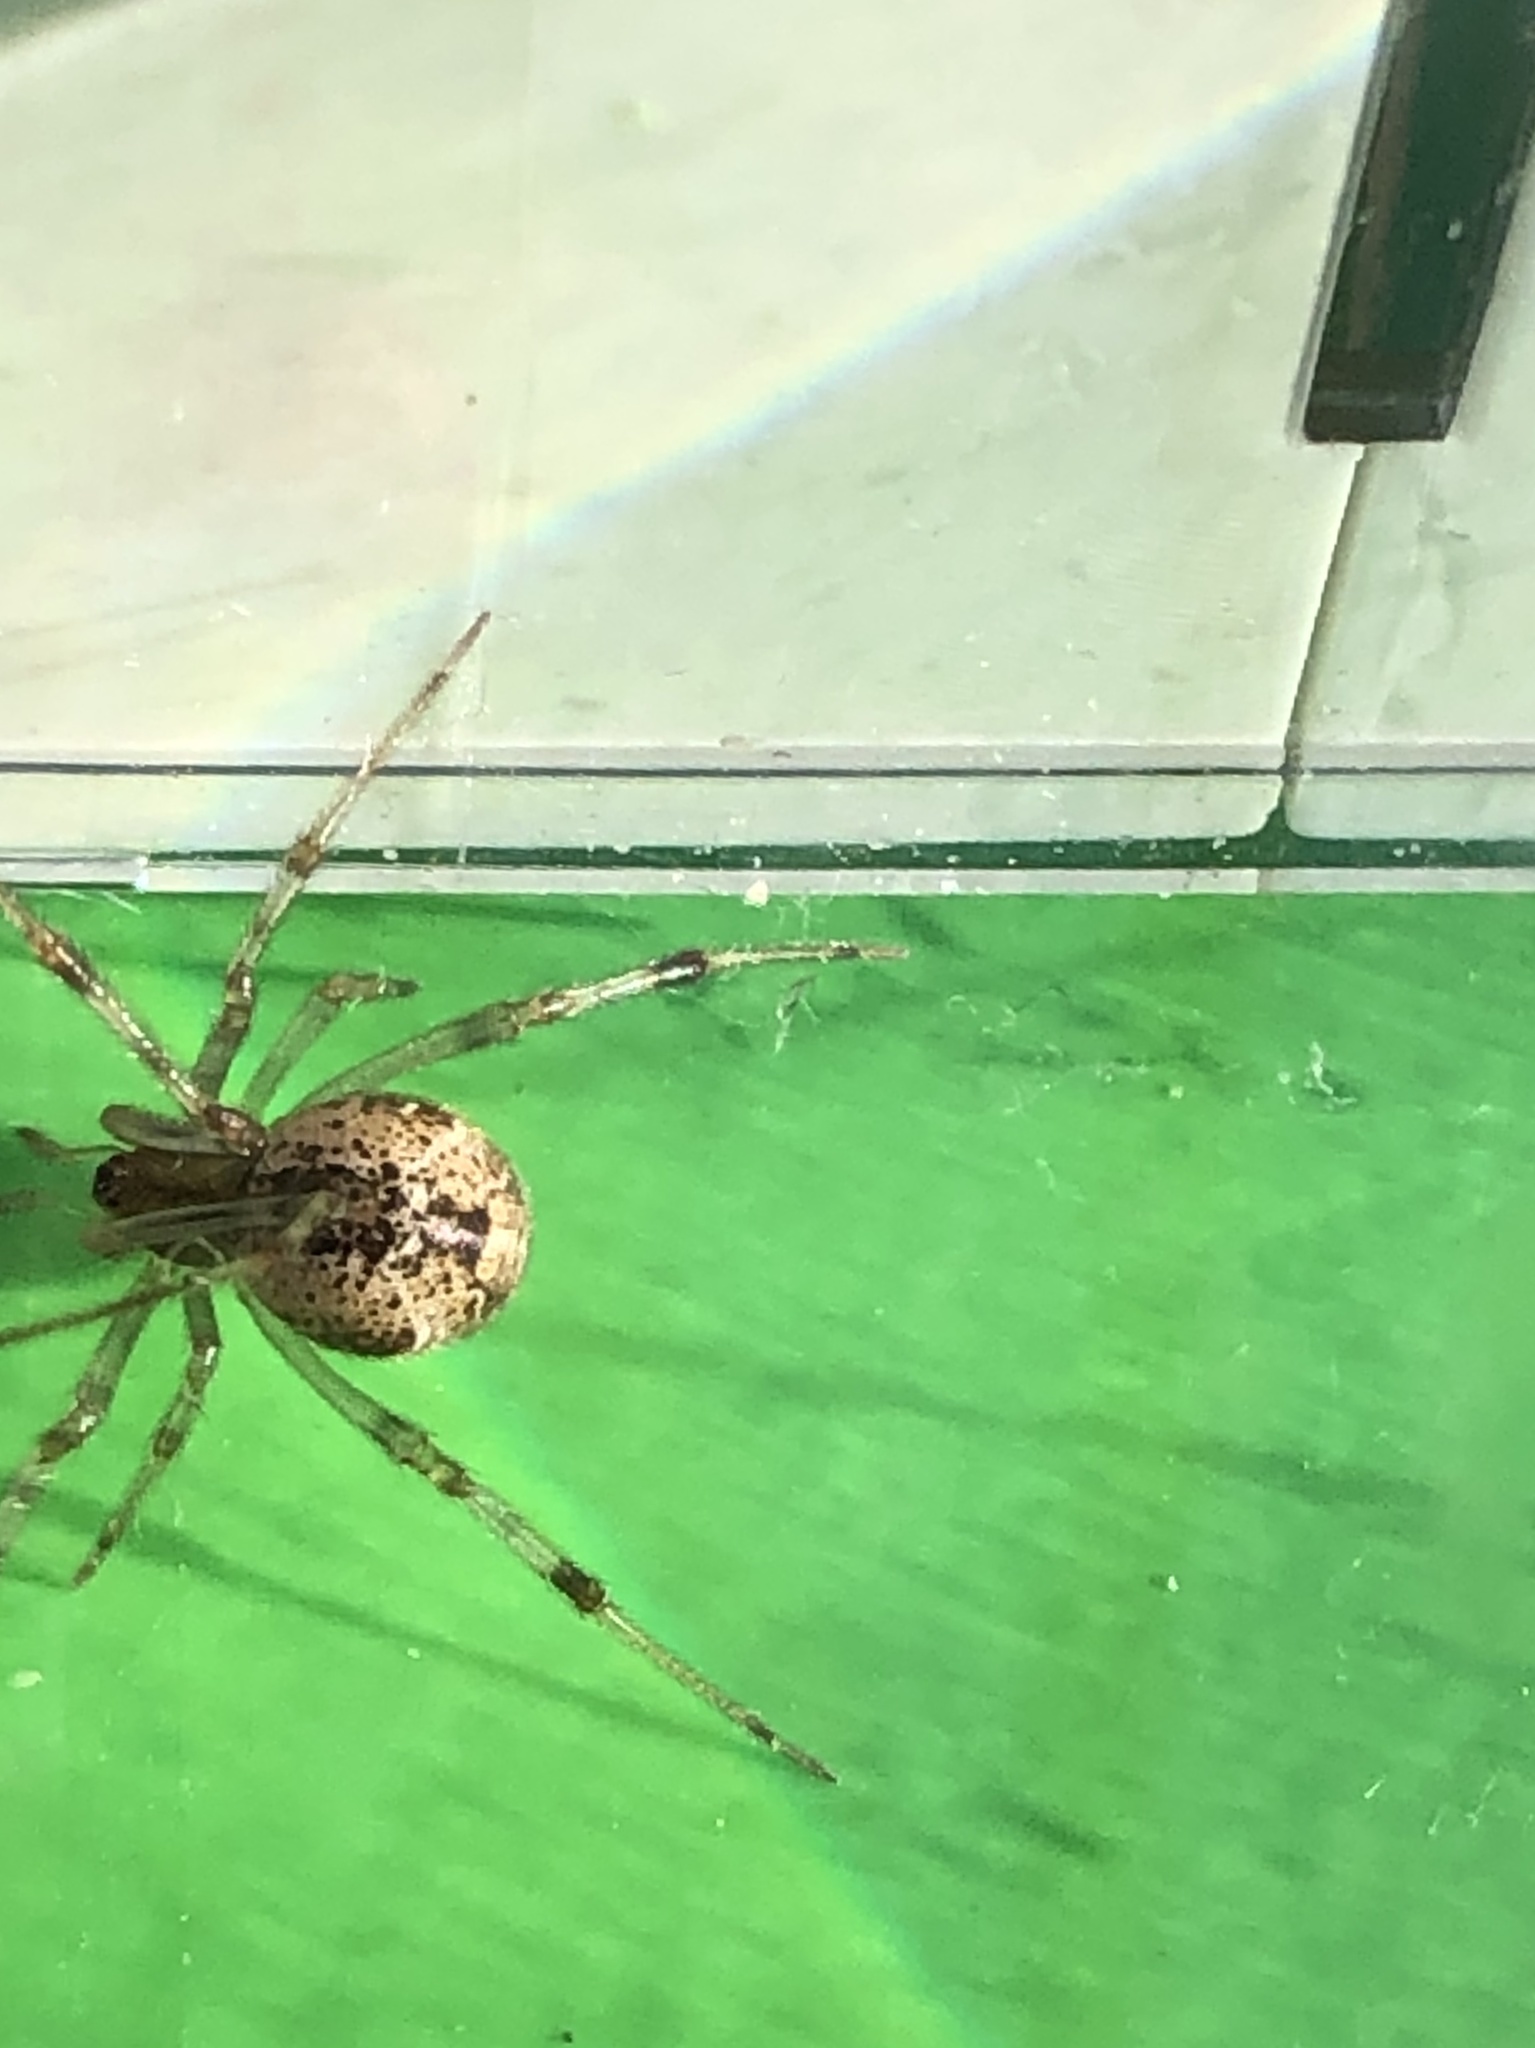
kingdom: Animalia
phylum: Arthropoda
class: Arachnida
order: Araneae
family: Theridiidae
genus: Parasteatoda
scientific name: Parasteatoda tepidariorum
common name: Common house spider
